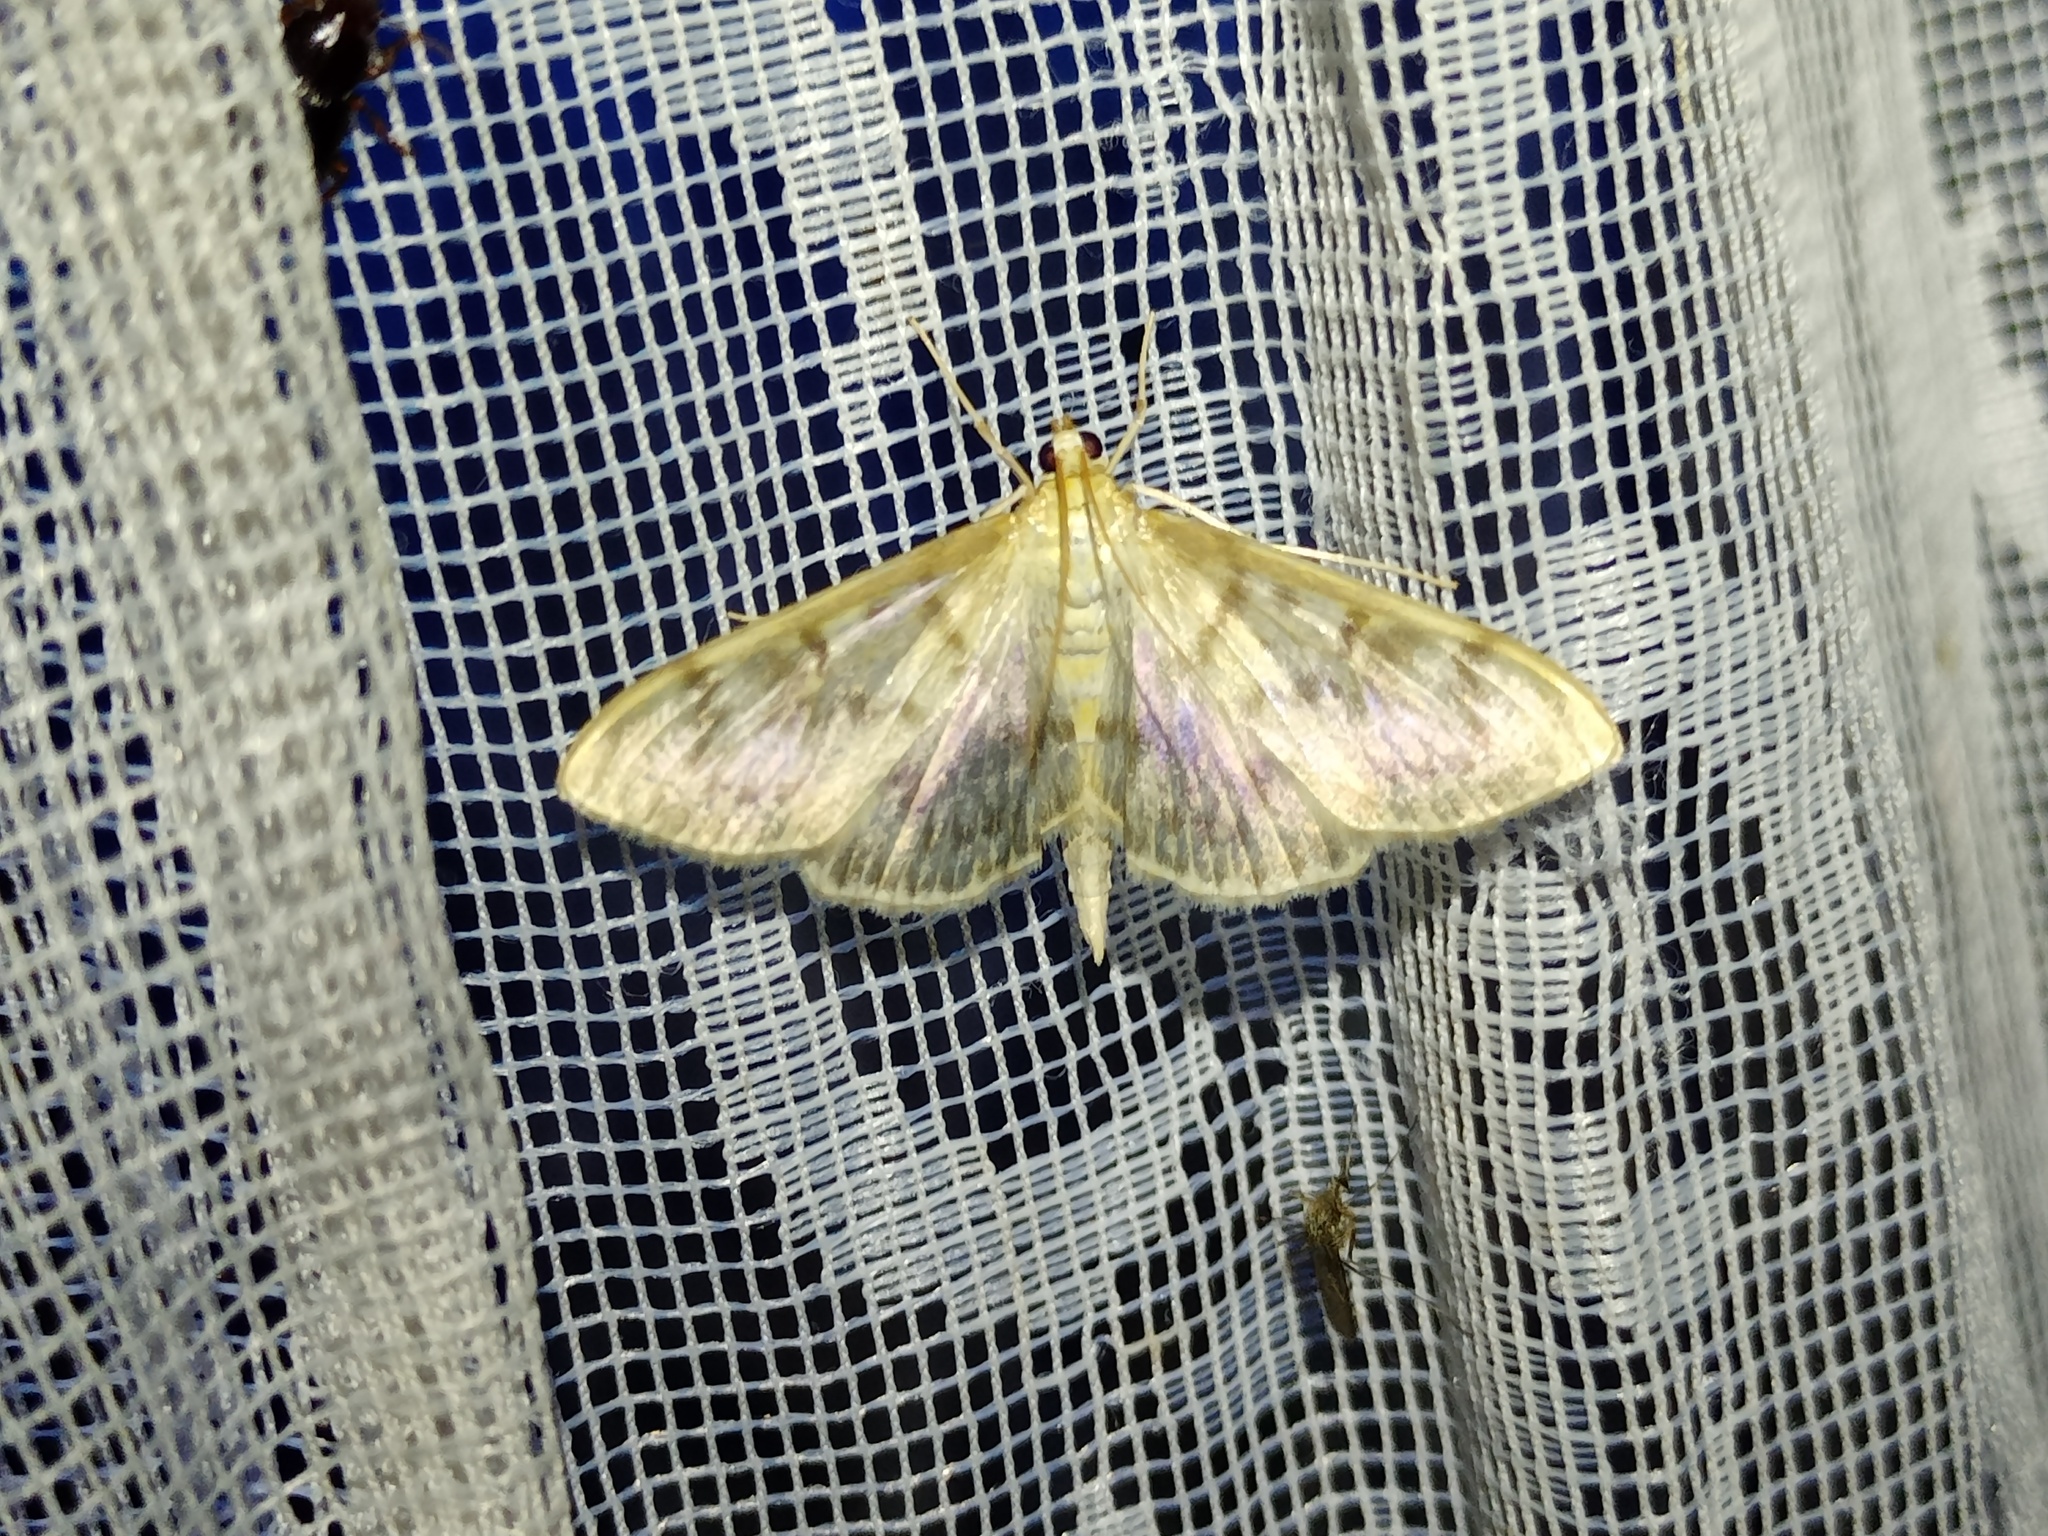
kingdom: Animalia
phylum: Arthropoda
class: Insecta
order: Lepidoptera
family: Crambidae
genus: Patania
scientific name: Patania ruralis
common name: Mother of pearl
